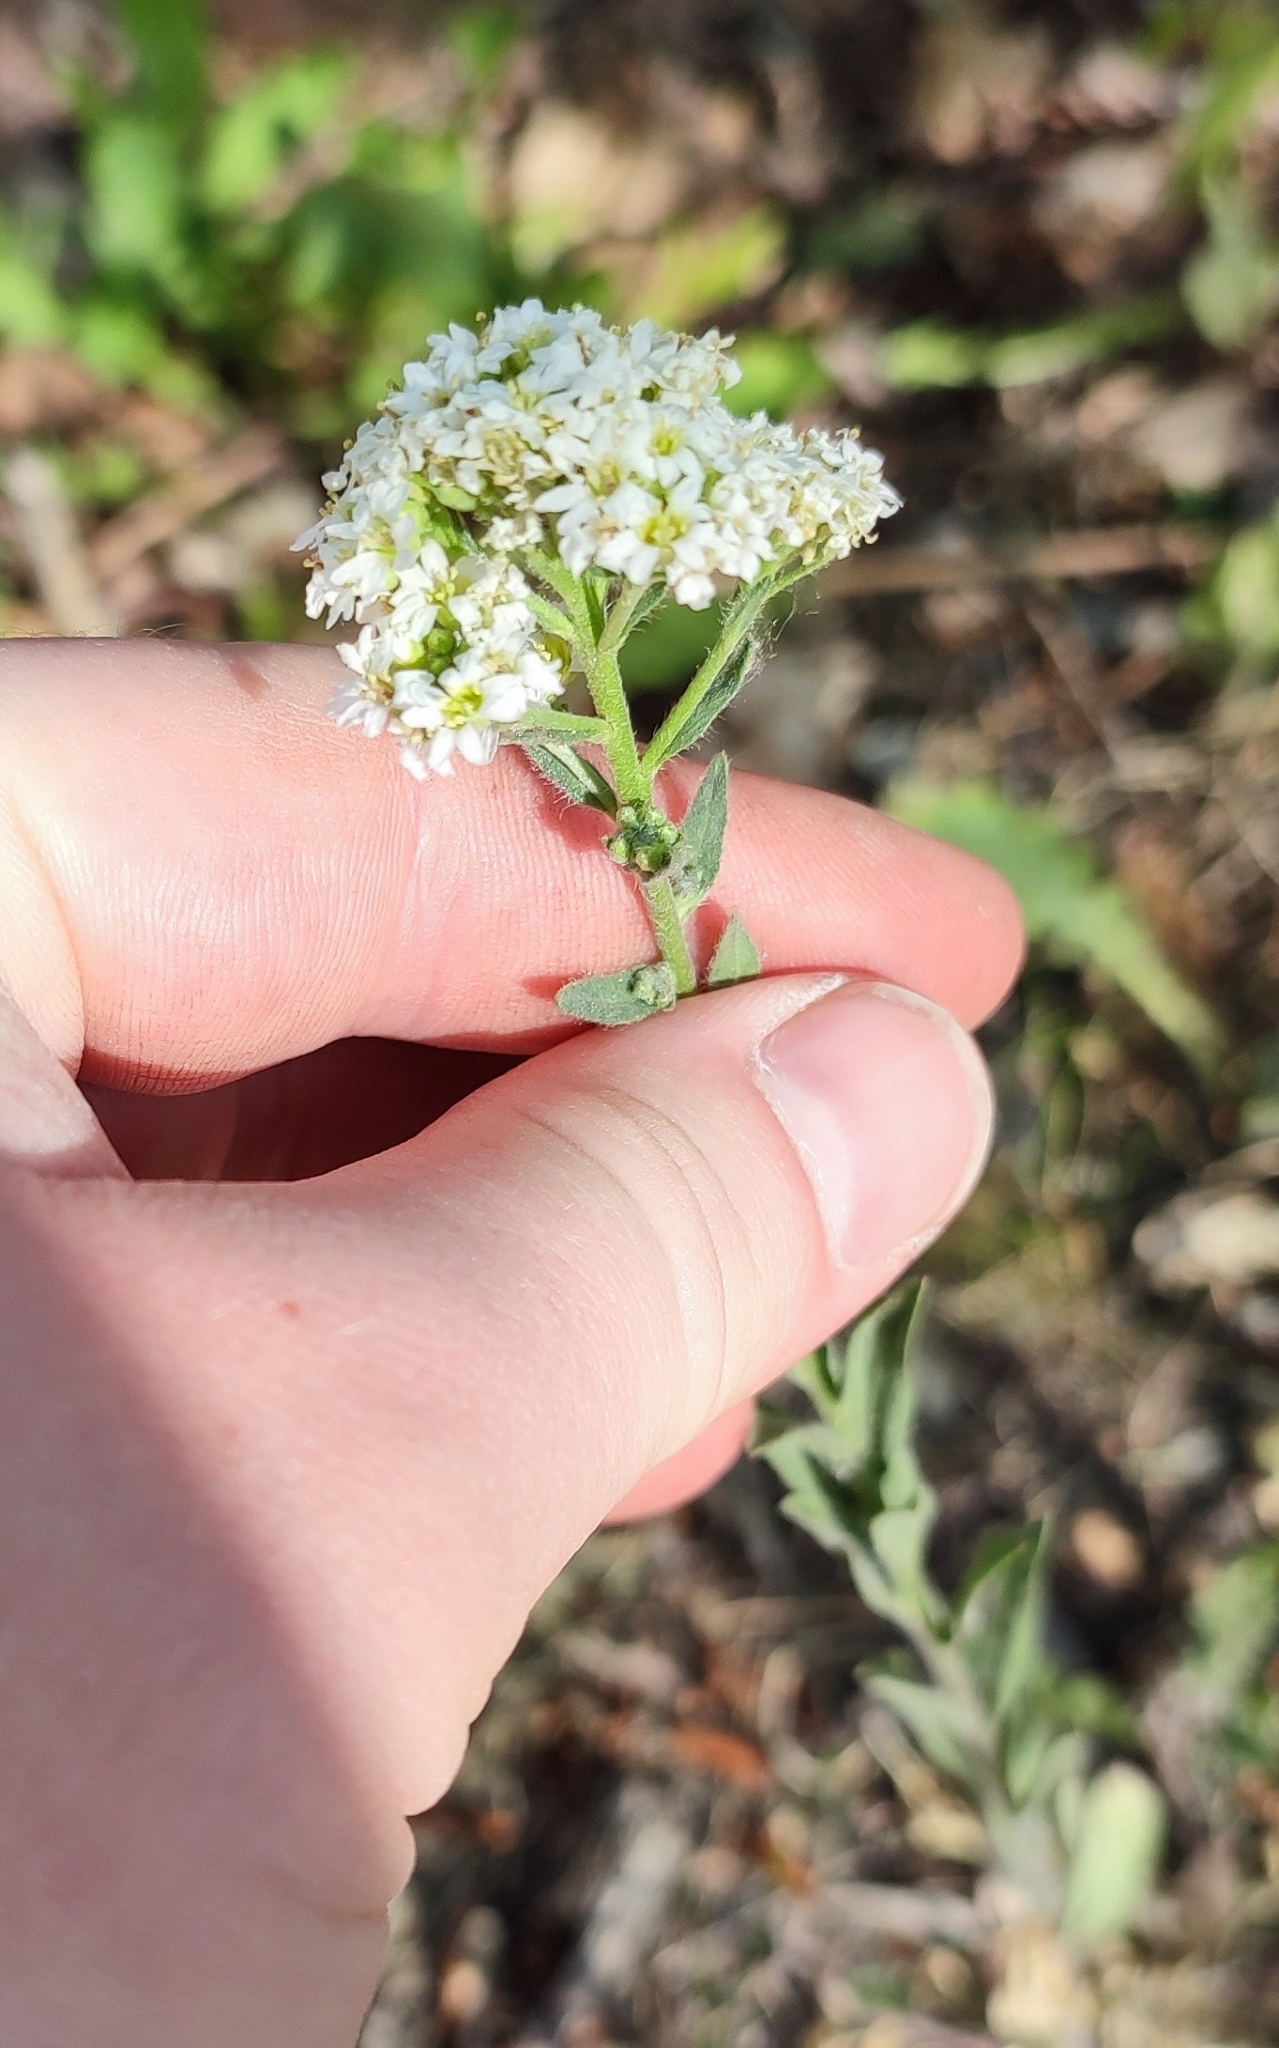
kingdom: Plantae
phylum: Tracheophyta
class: Magnoliopsida
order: Brassicales
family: Brassicaceae
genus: Berteroa
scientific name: Berteroa incana
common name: Hoary alison
